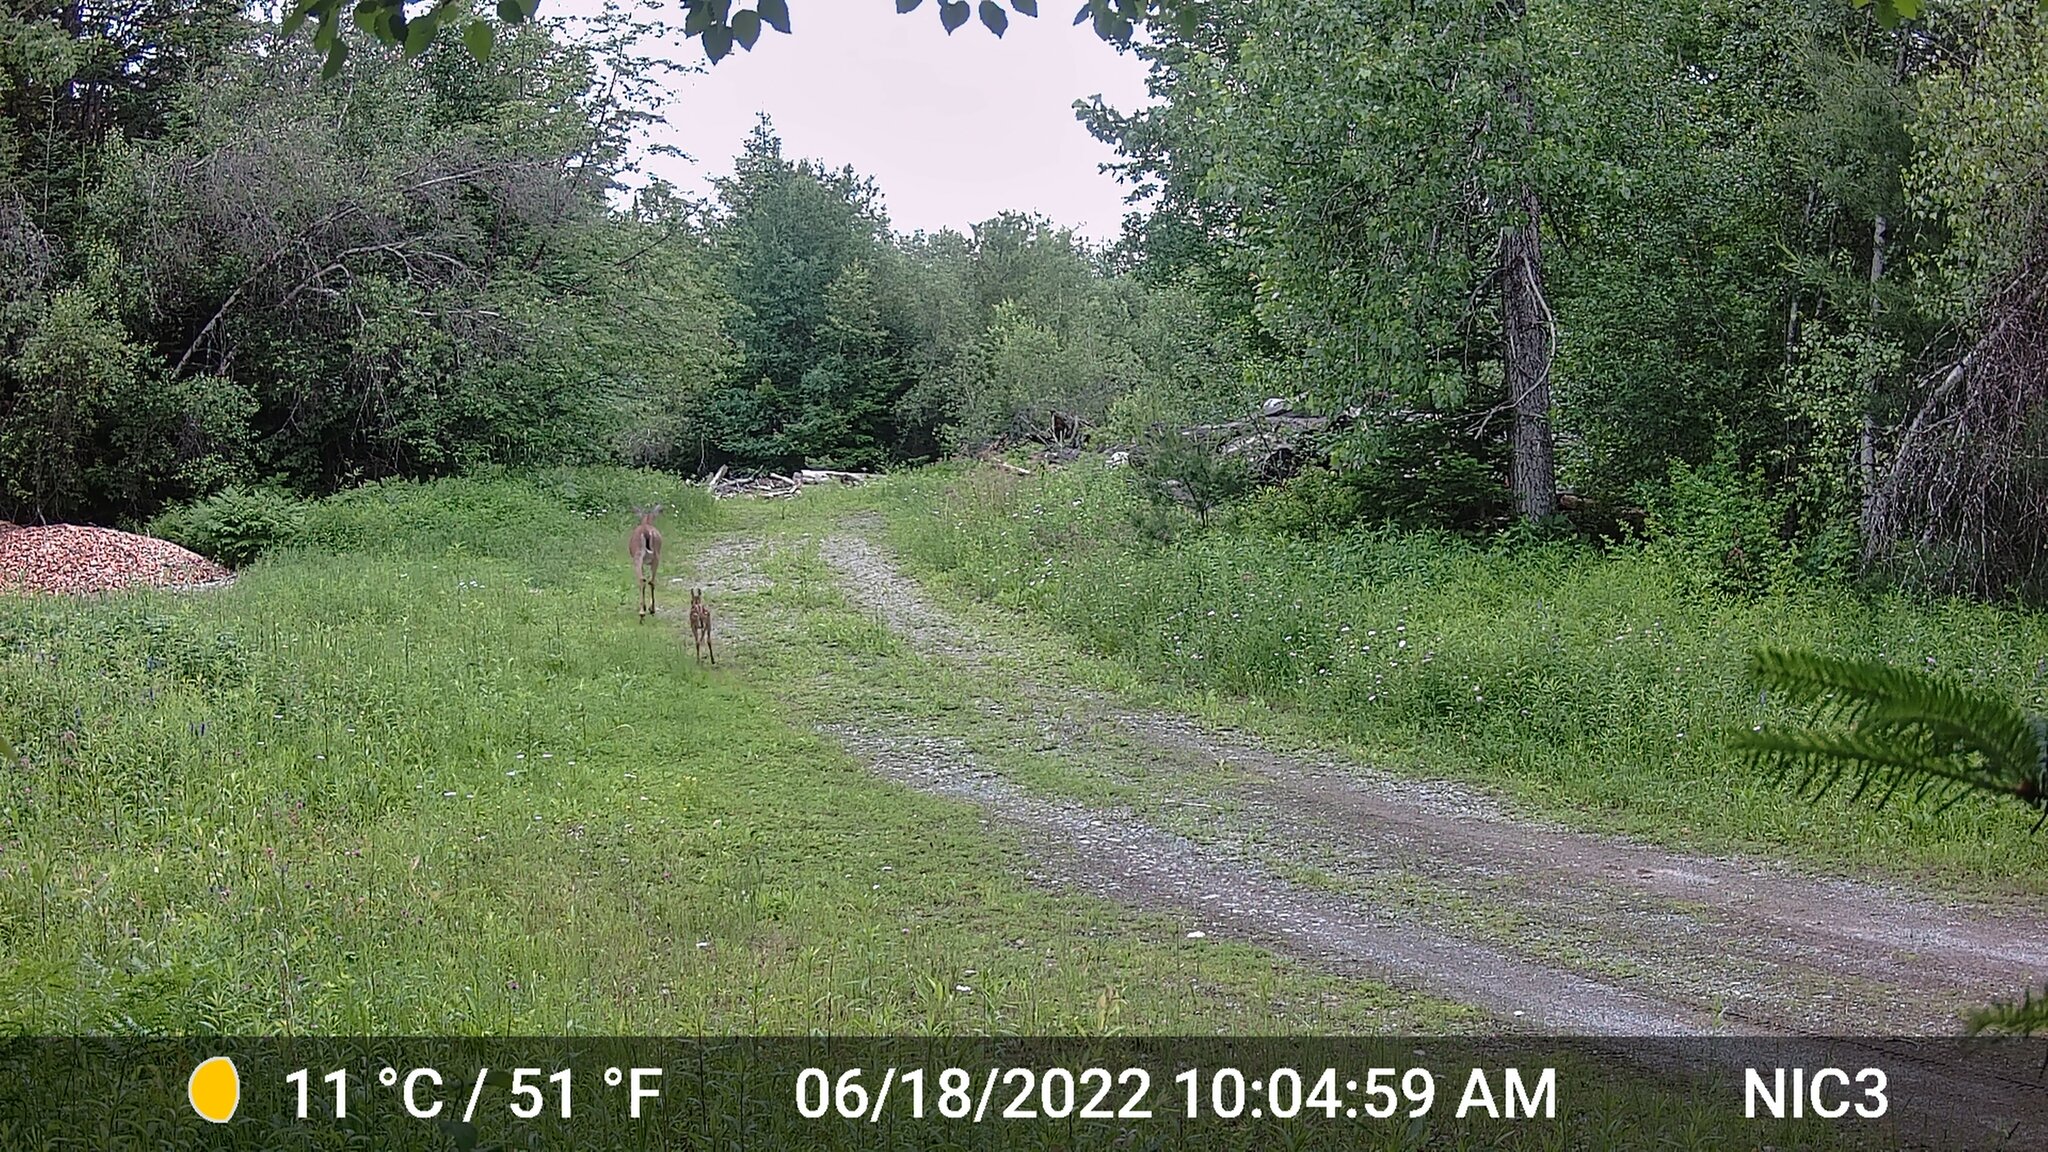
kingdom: Animalia
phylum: Chordata
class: Mammalia
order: Artiodactyla
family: Cervidae
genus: Odocoileus
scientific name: Odocoileus virginianus
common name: White-tailed deer
